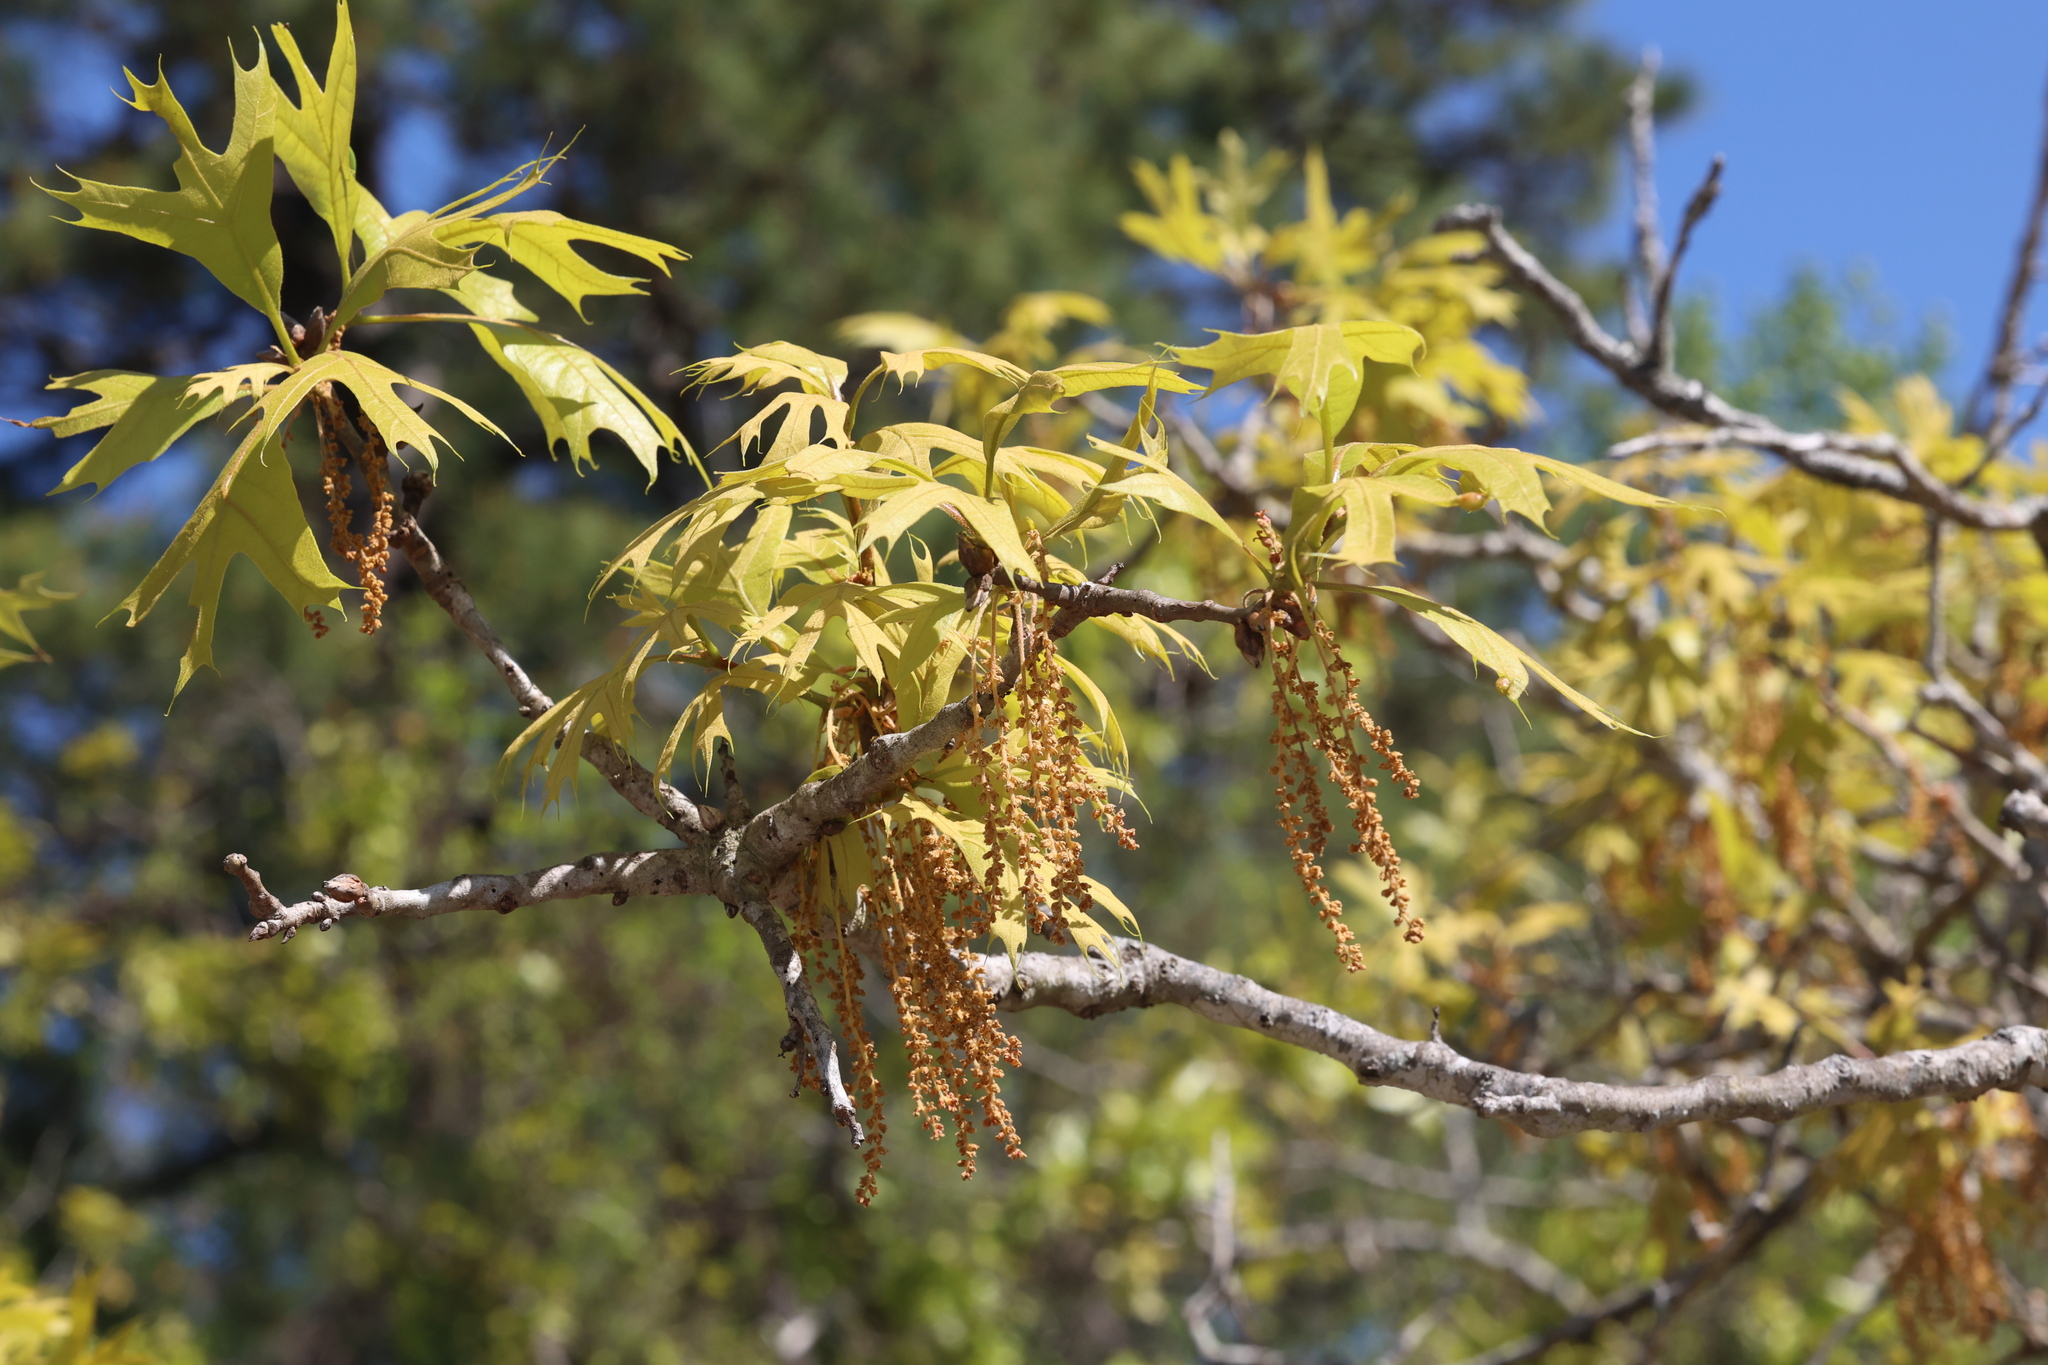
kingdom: Plantae
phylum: Tracheophyta
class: Magnoliopsida
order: Fagales
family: Fagaceae
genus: Quercus
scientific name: Quercus laevis
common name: Turkey oak
